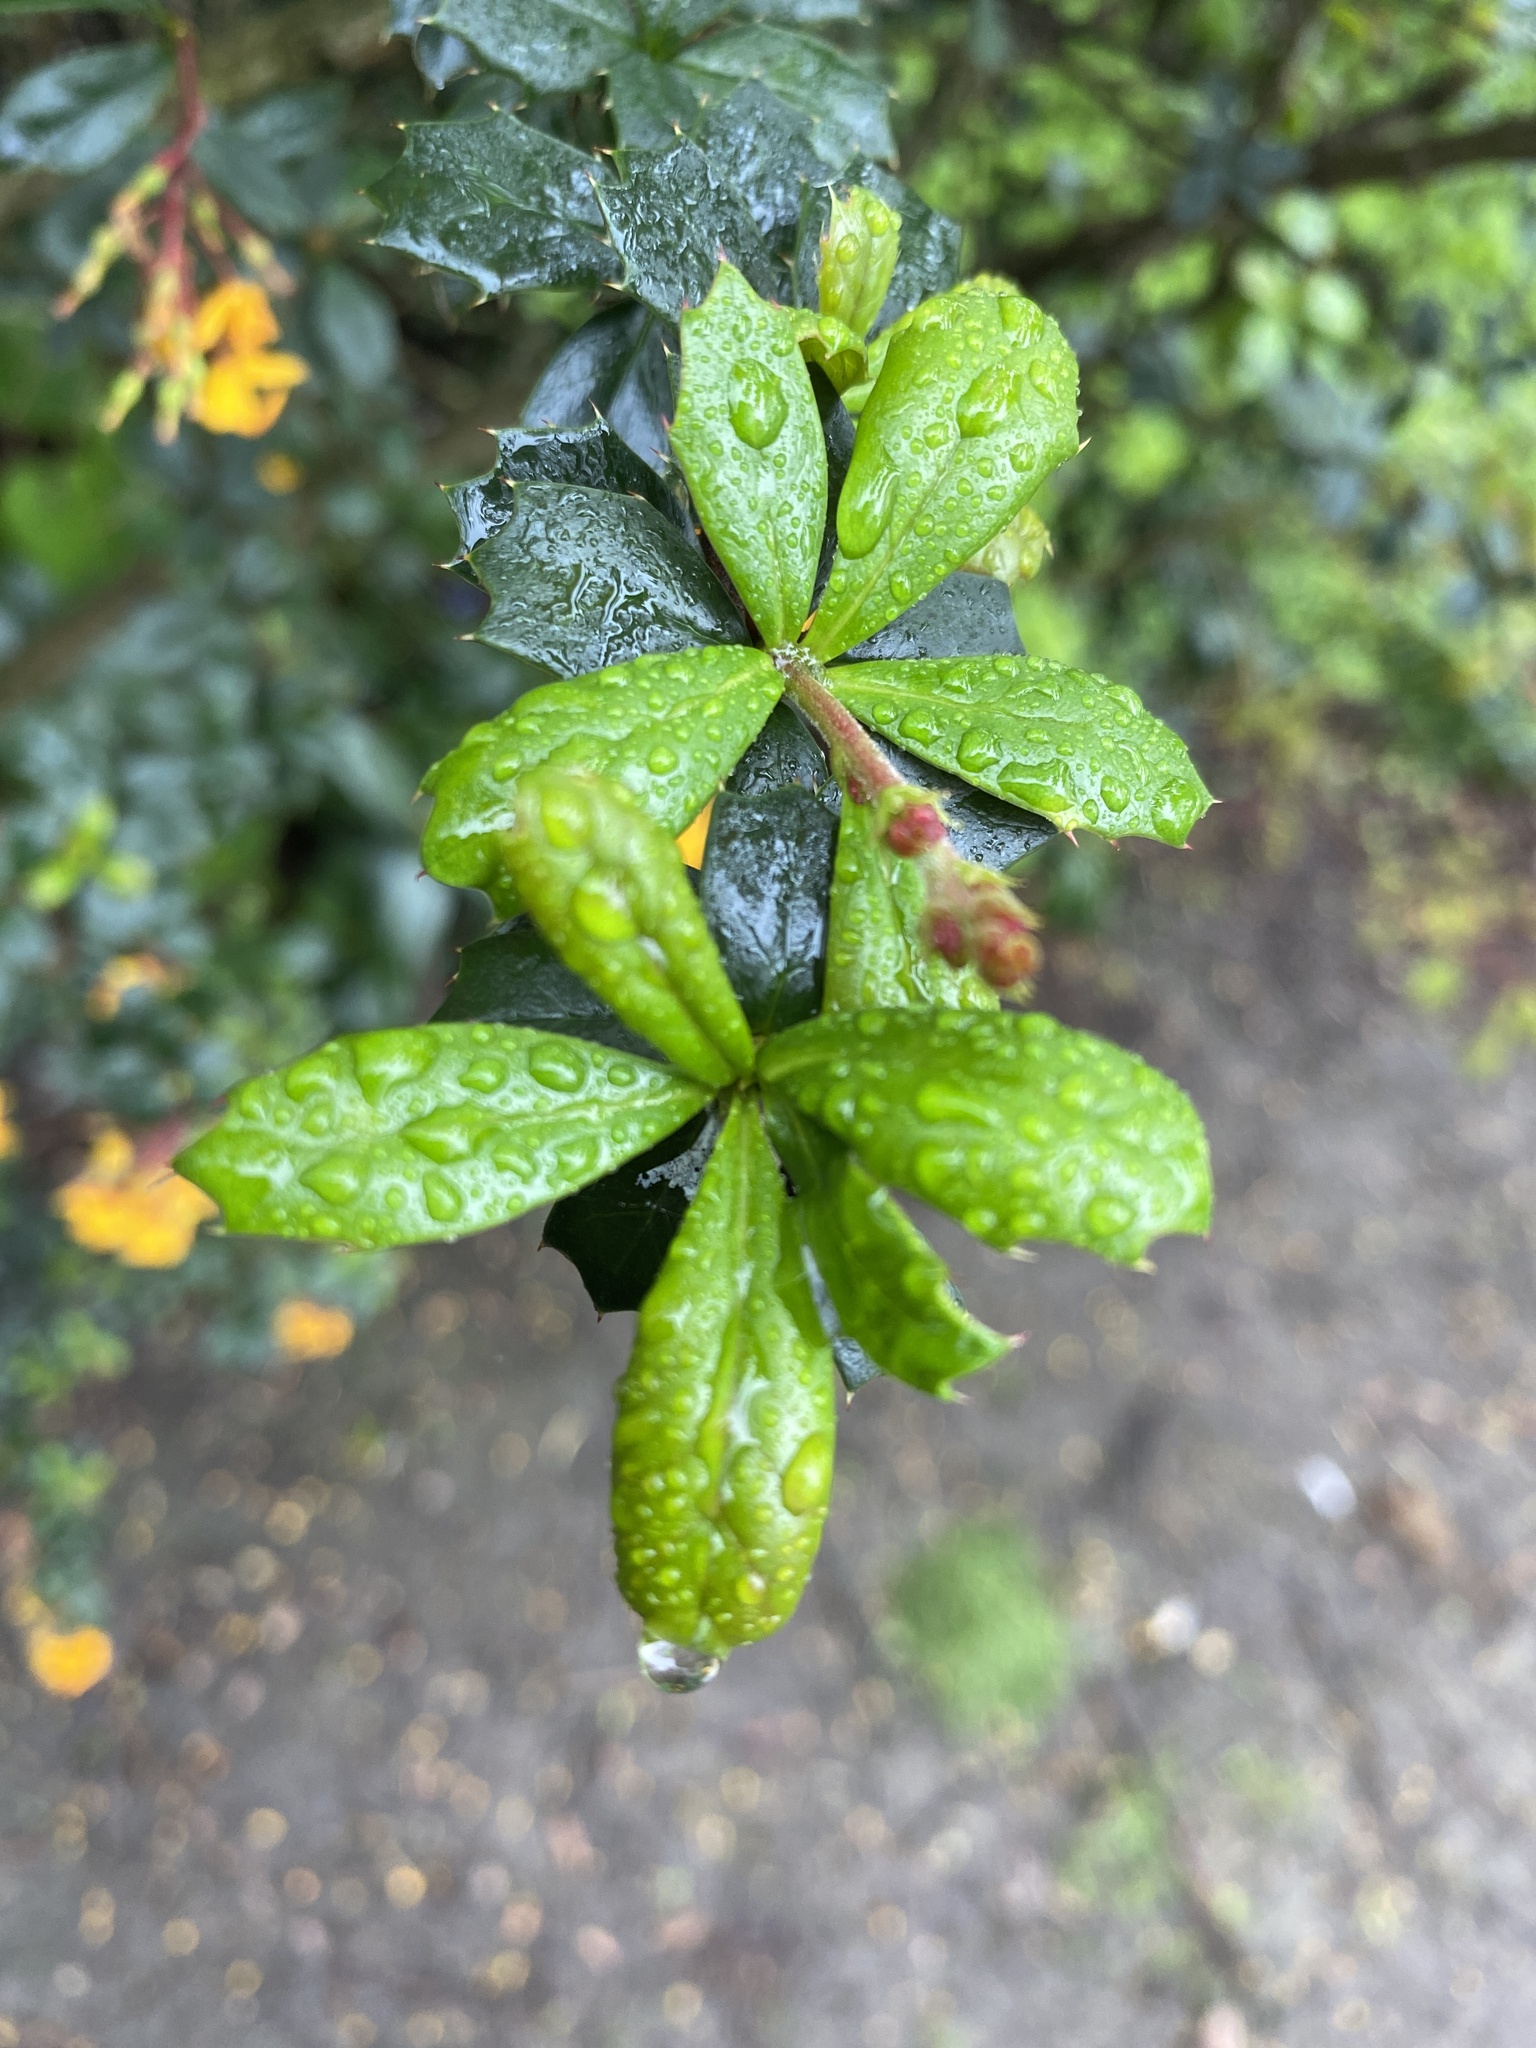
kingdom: Plantae
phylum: Tracheophyta
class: Magnoliopsida
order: Ranunculales
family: Berberidaceae
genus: Berberis
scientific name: Berberis darwinii
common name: Darwin's barberry
